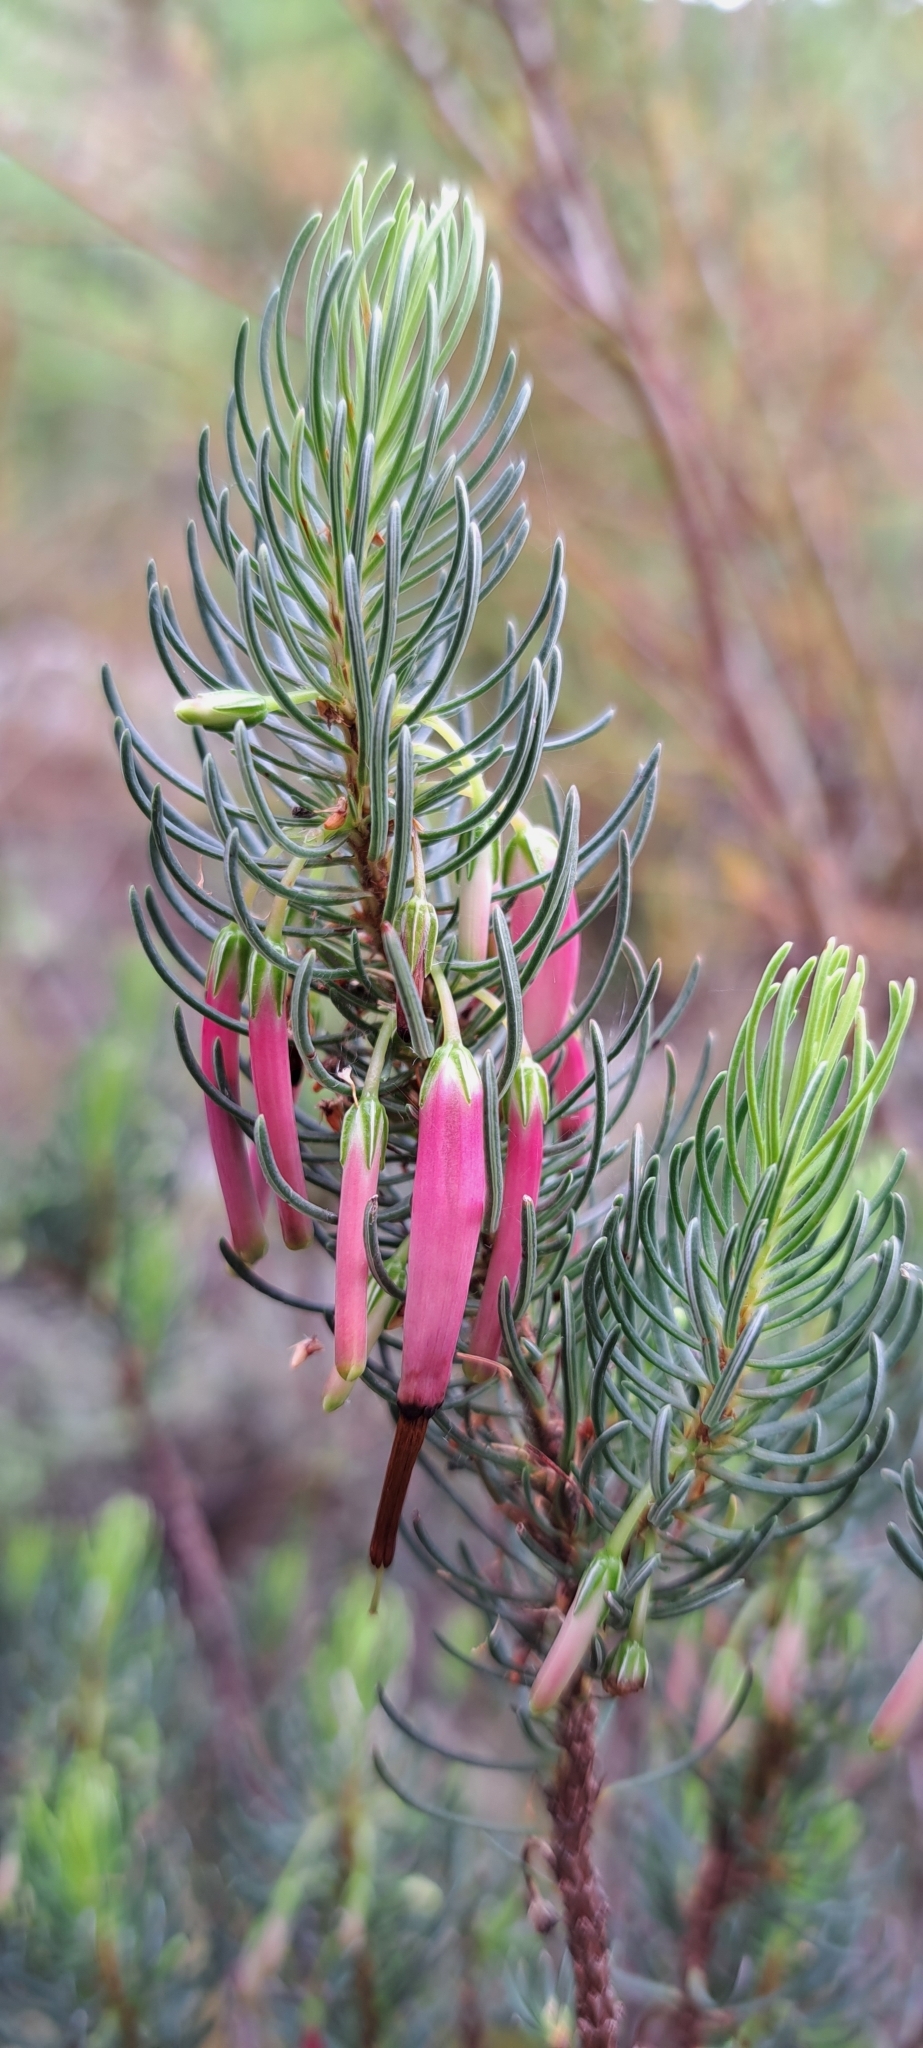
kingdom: Plantae
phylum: Tracheophyta
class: Magnoliopsida
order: Ericales
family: Ericaceae
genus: Erica
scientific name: Erica plukenetii
